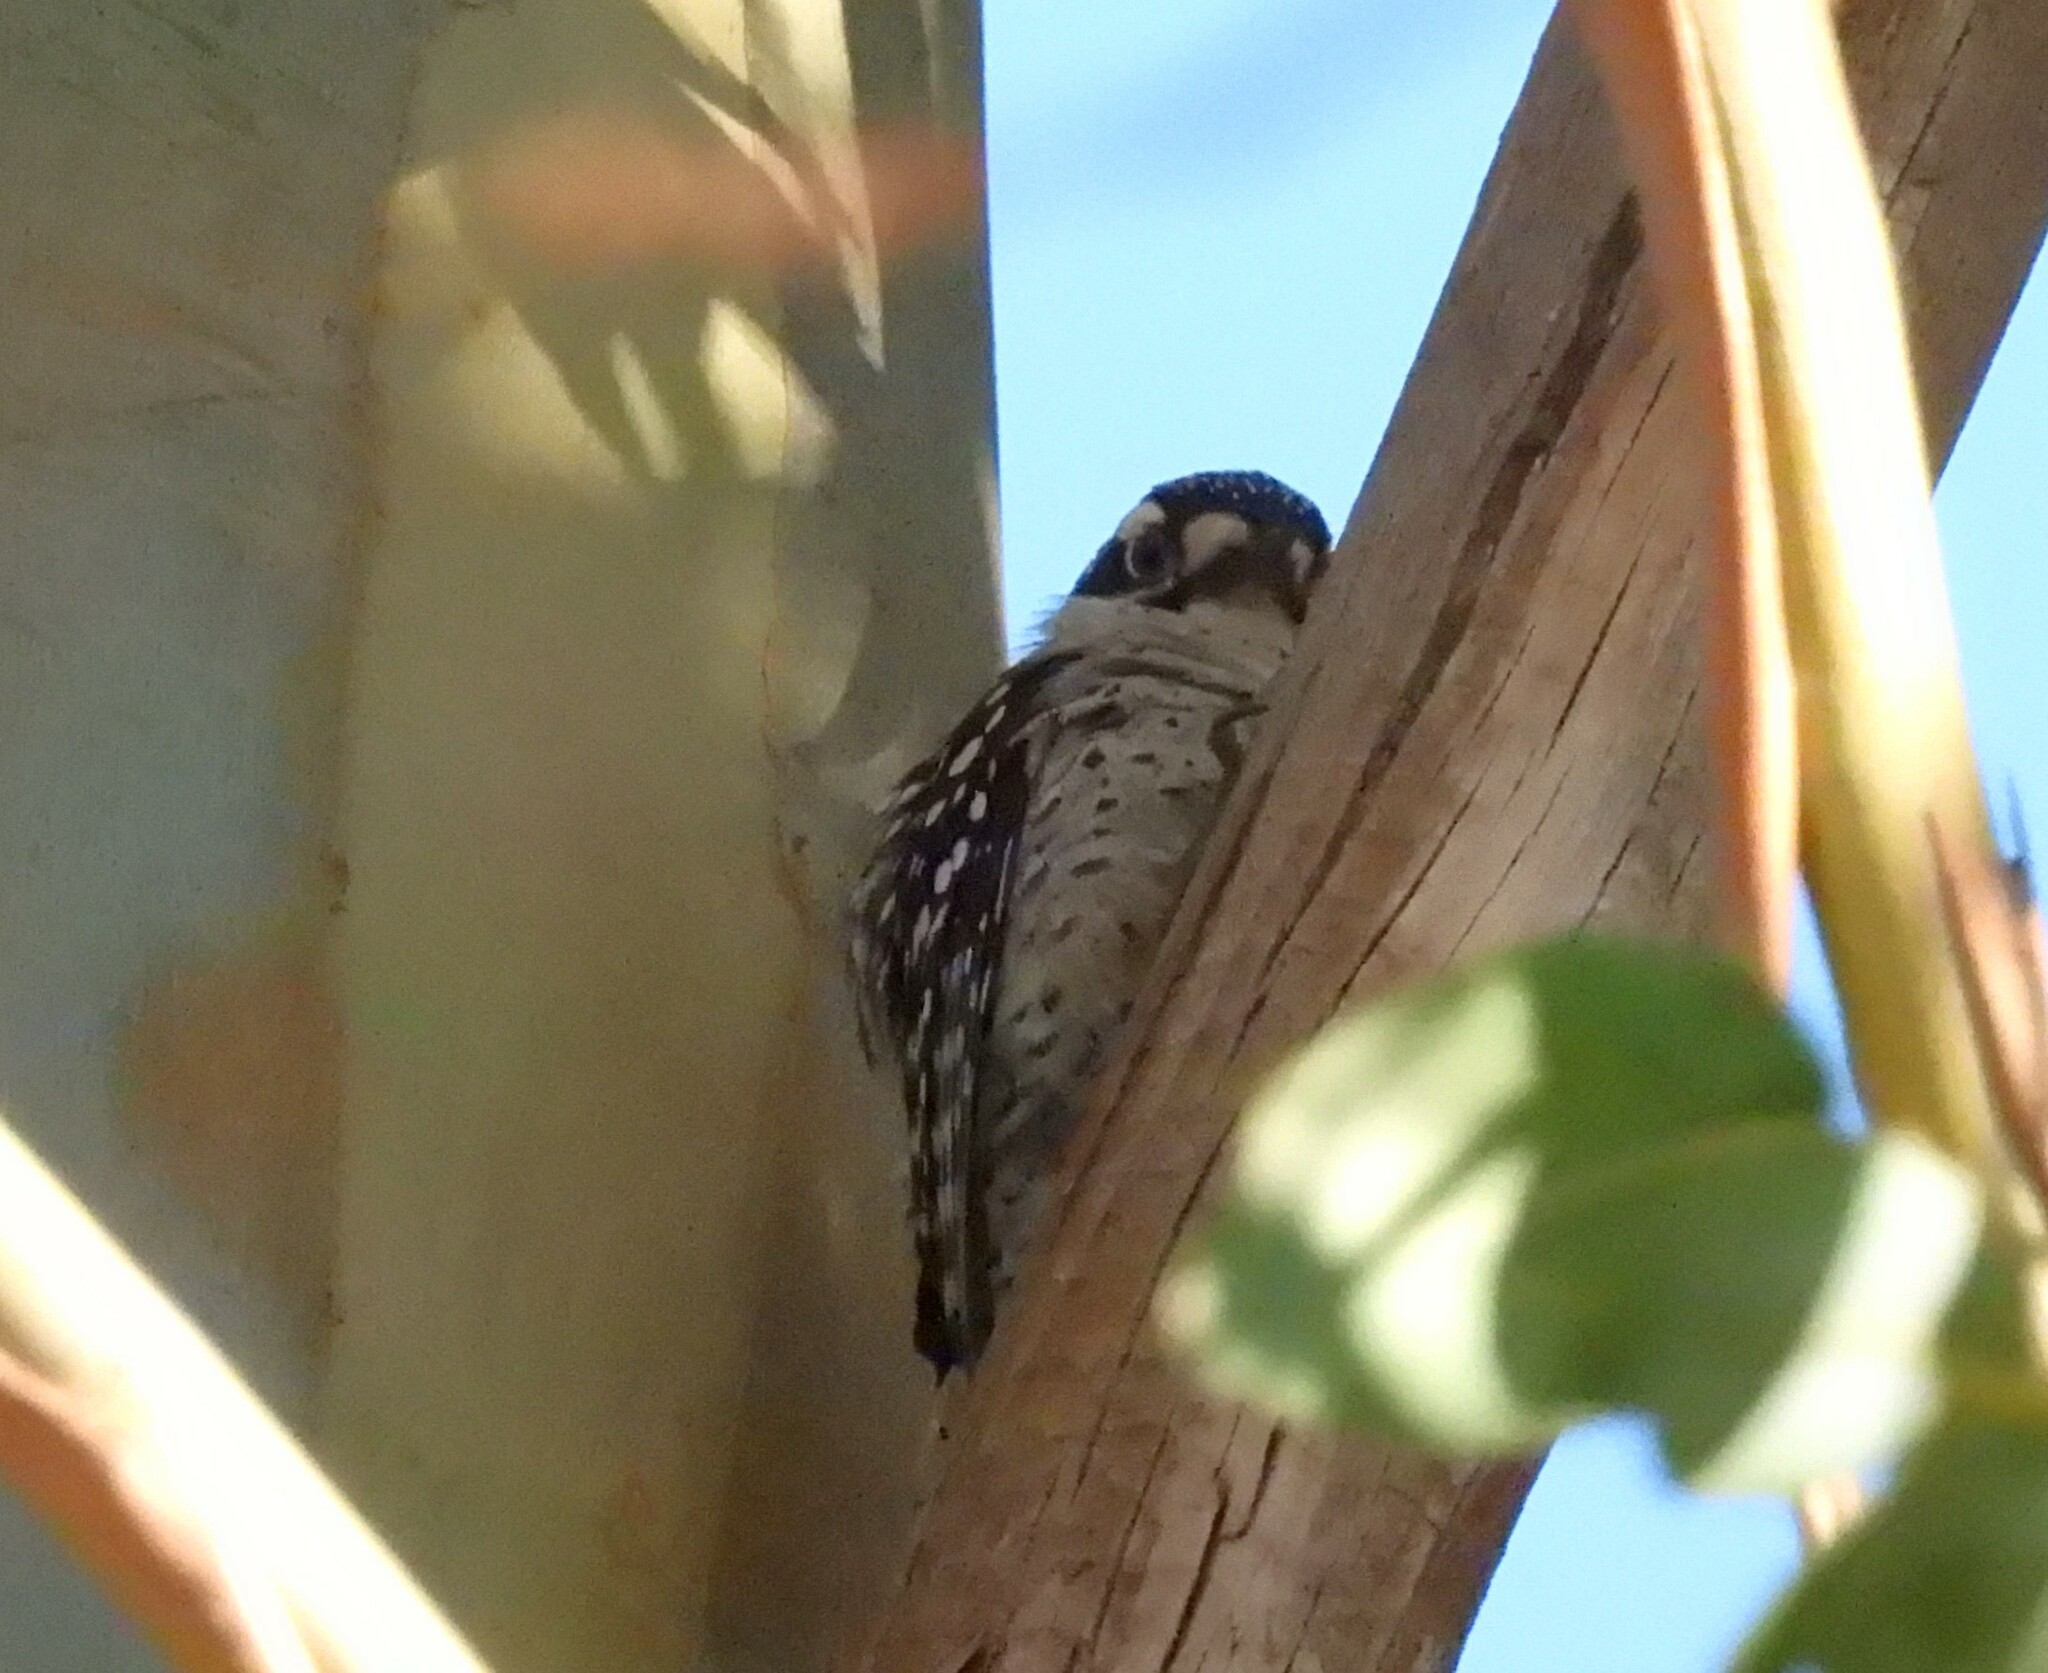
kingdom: Animalia
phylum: Chordata
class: Aves
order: Piciformes
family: Picidae
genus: Dryobates
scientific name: Dryobates nuttallii
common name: Nuttall's woodpecker
